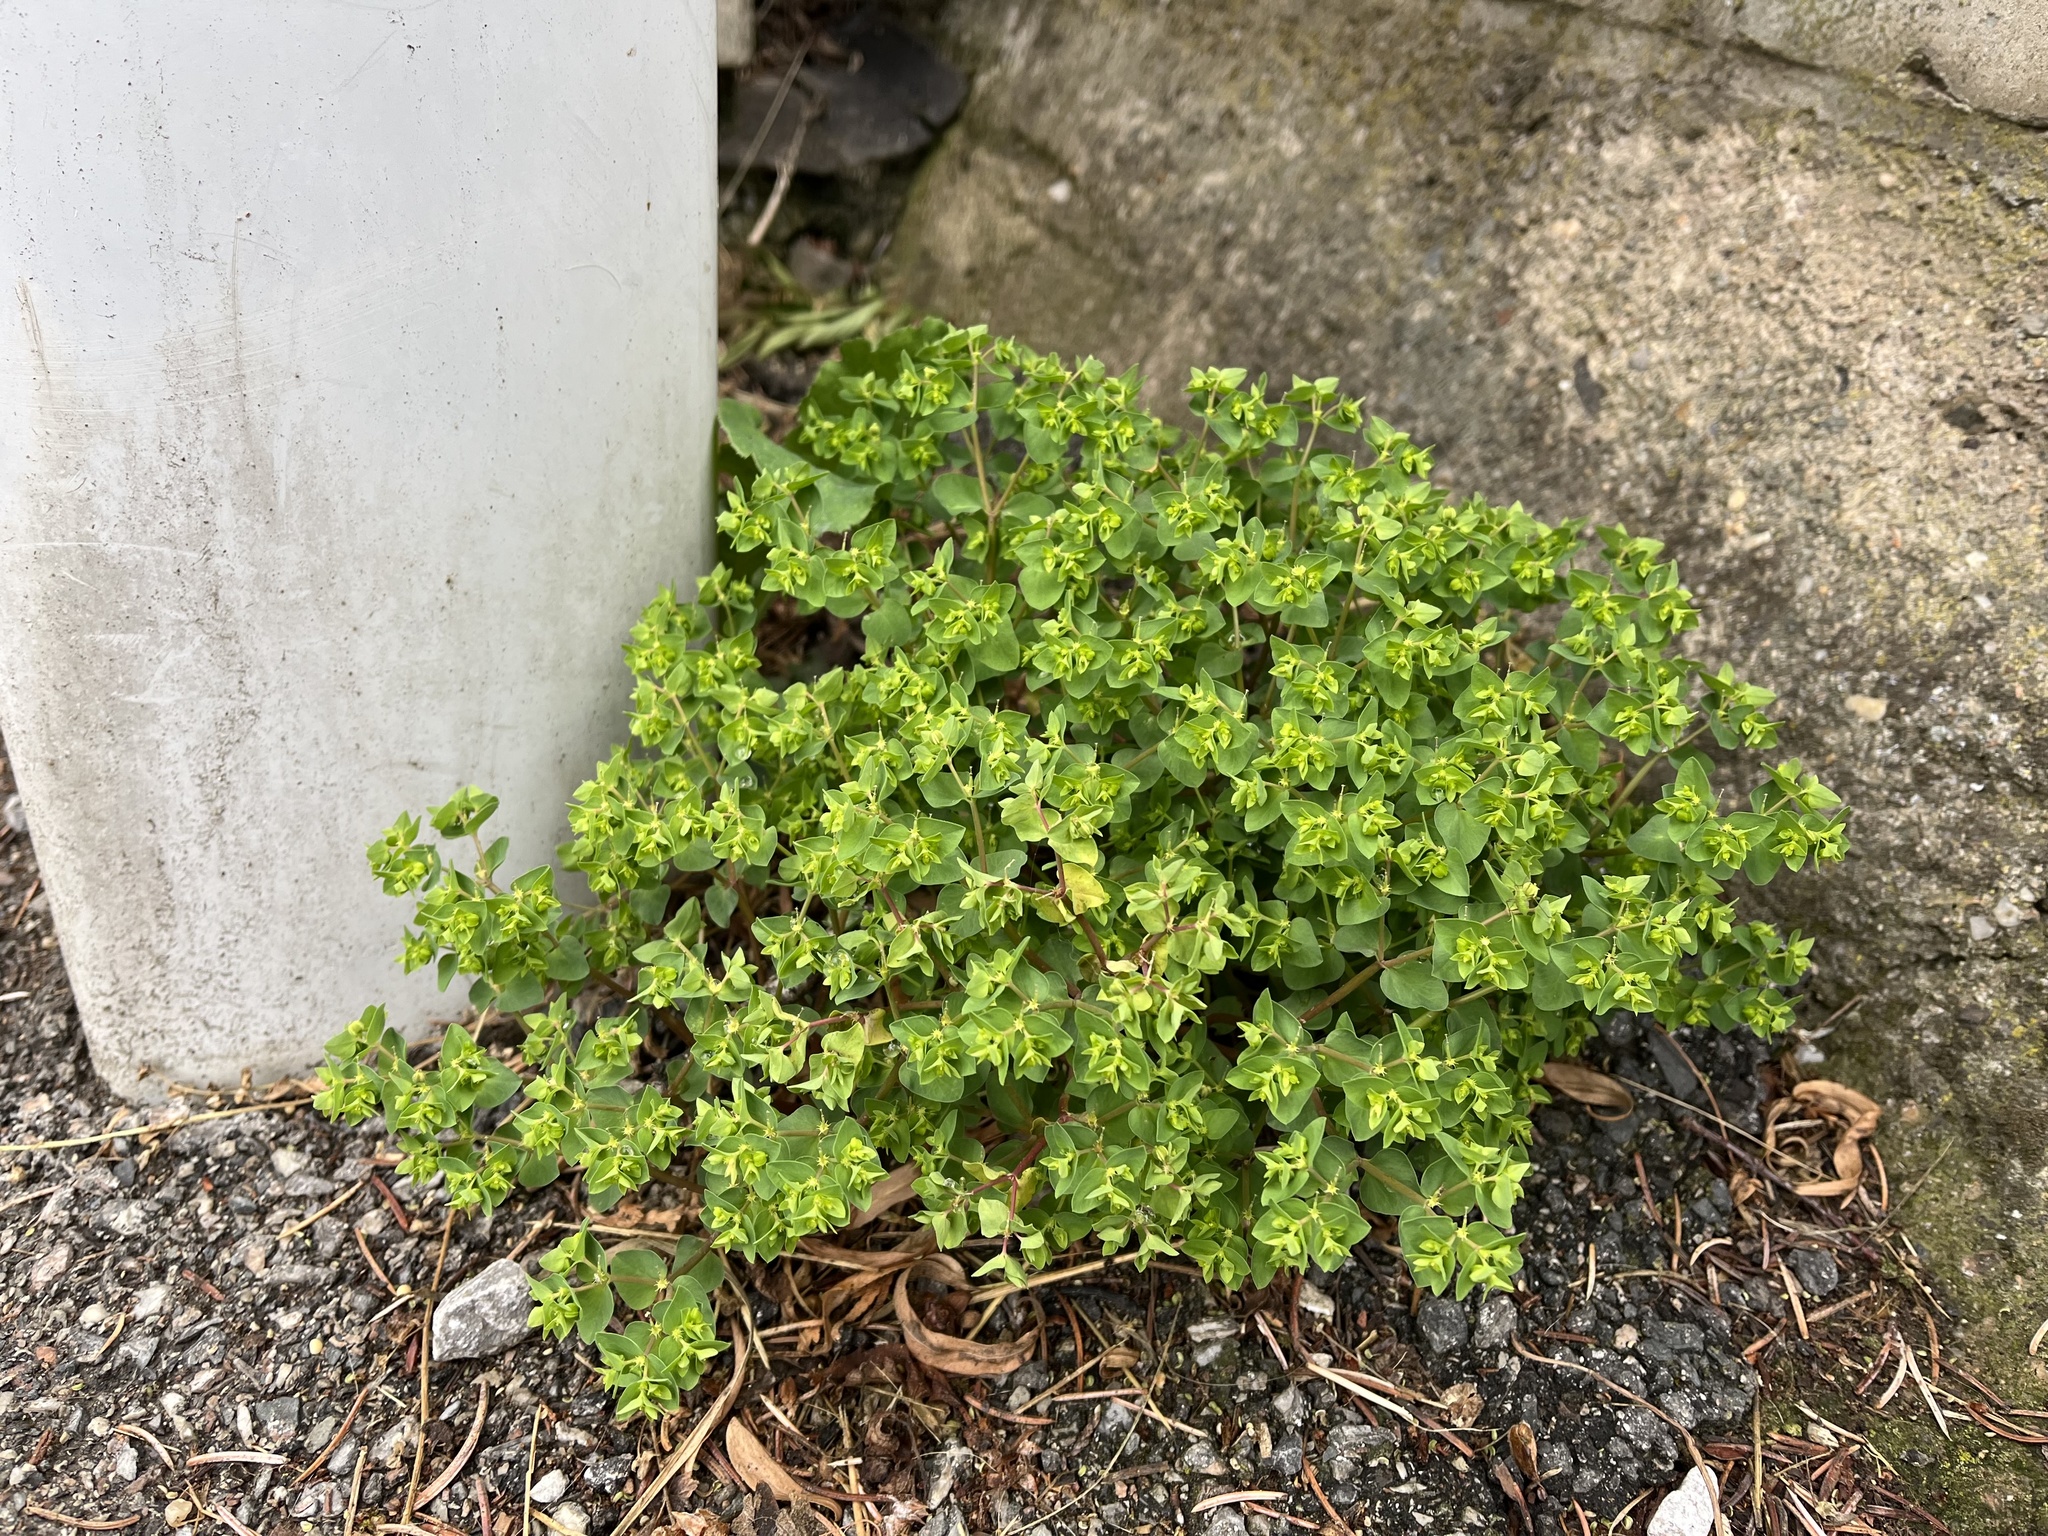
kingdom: Plantae
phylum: Tracheophyta
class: Magnoliopsida
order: Malpighiales
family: Euphorbiaceae
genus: Euphorbia
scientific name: Euphorbia peplus
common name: Petty spurge
